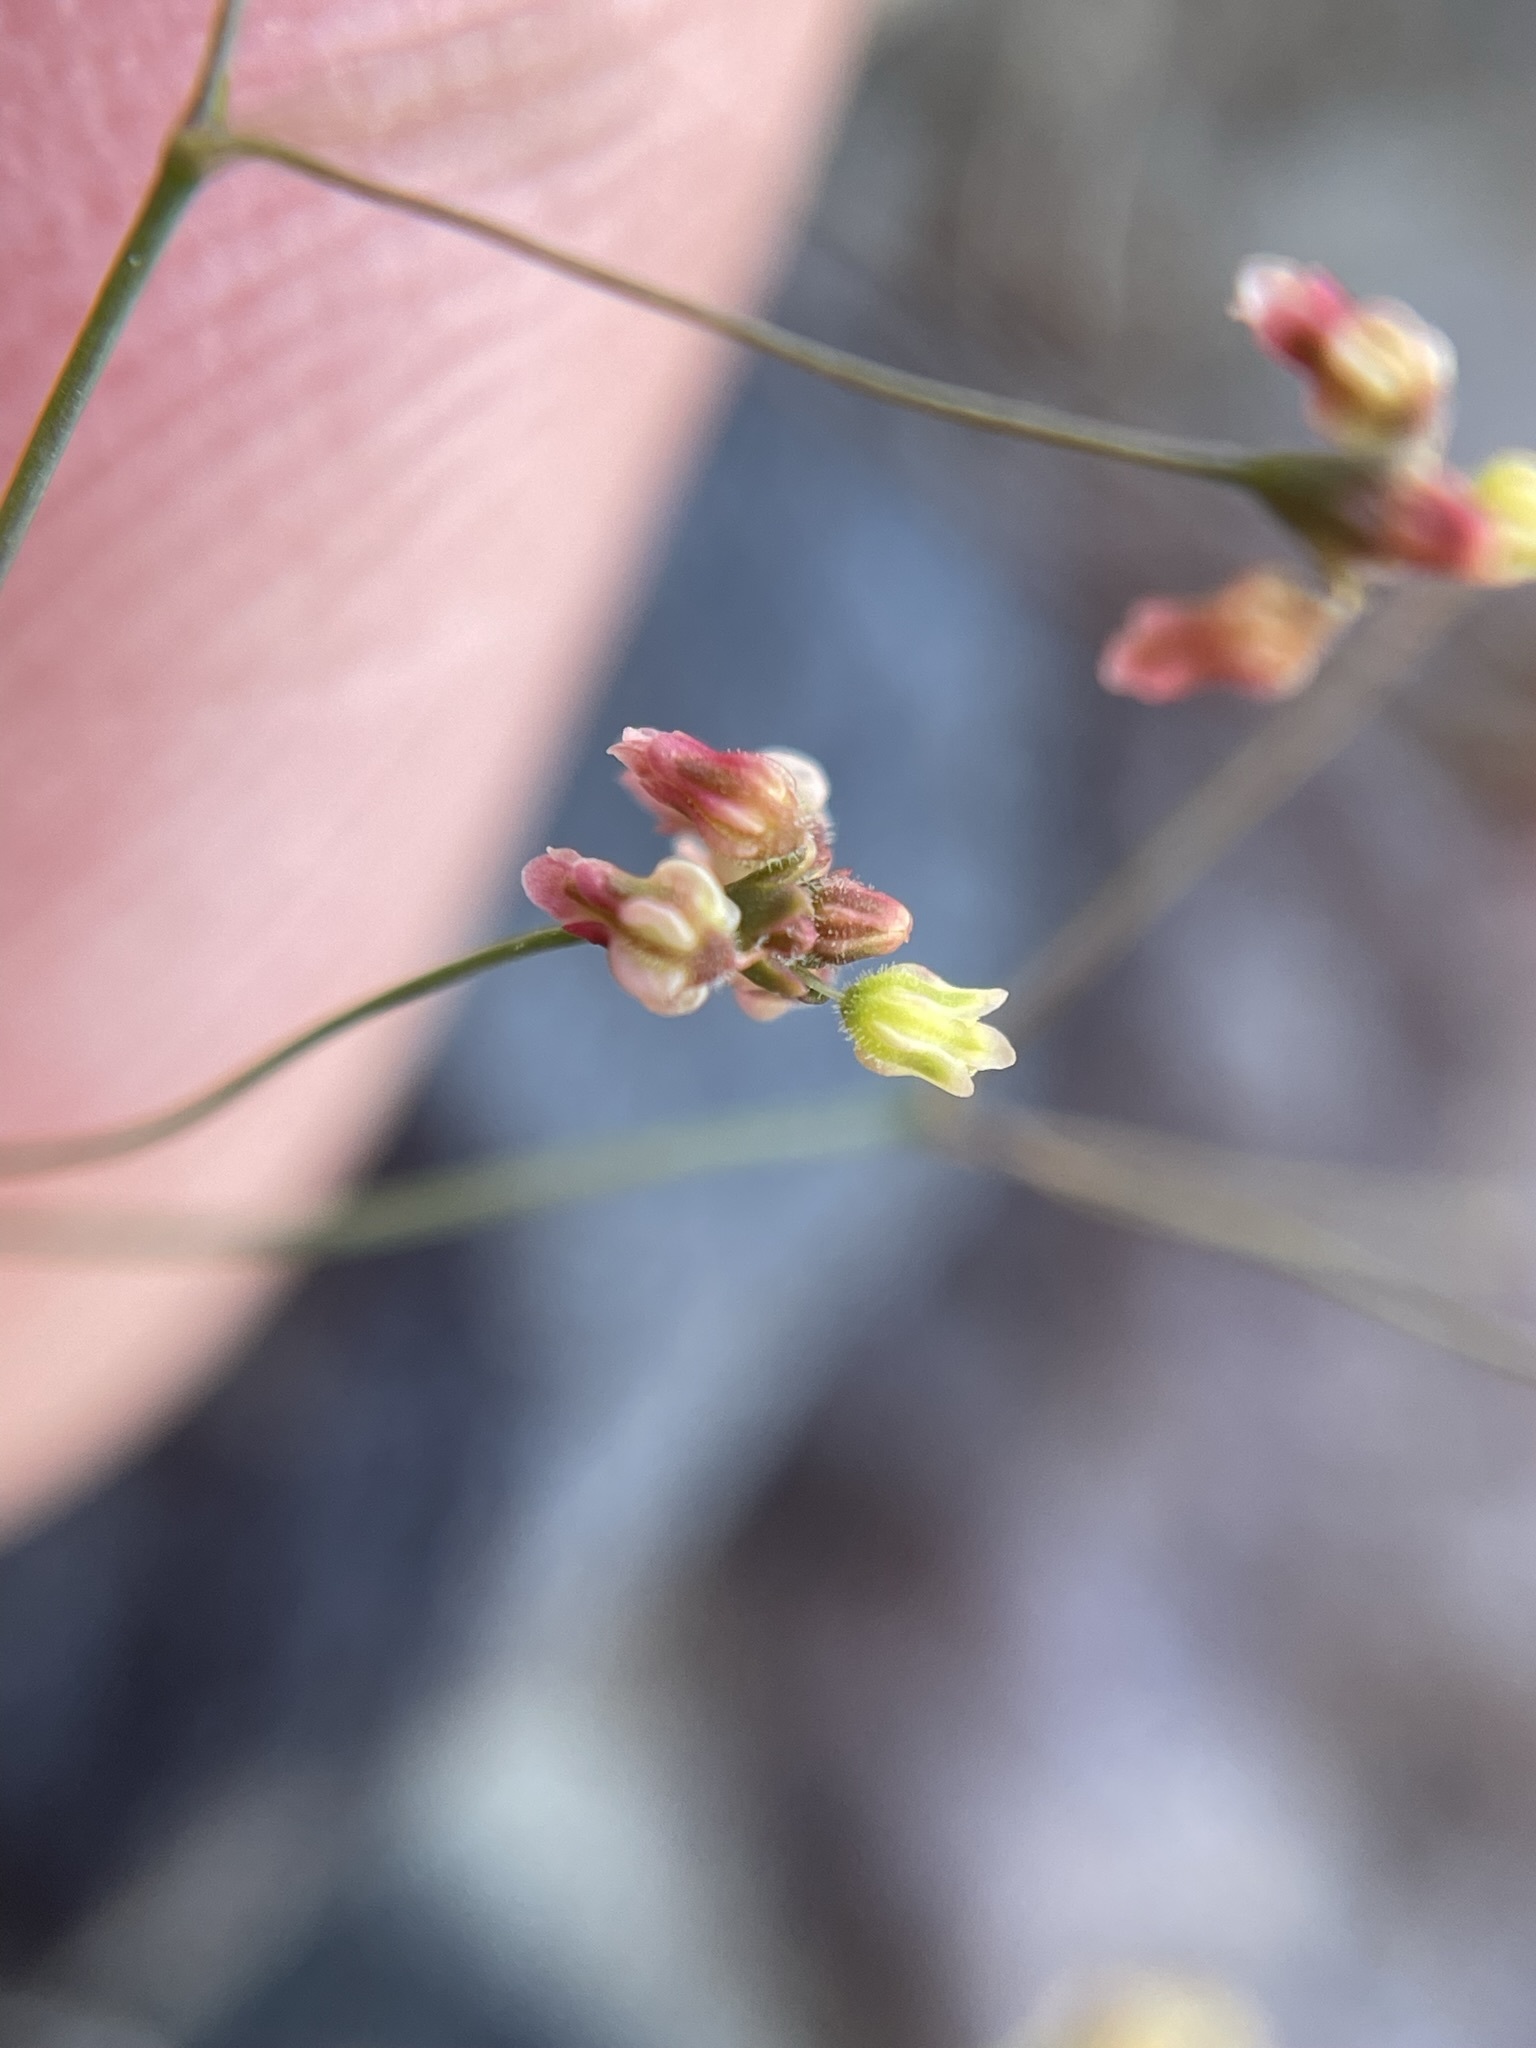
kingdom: Plantae
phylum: Tracheophyta
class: Magnoliopsida
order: Caryophyllales
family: Polygonaceae
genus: Eriogonum
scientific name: Eriogonum thomasii
